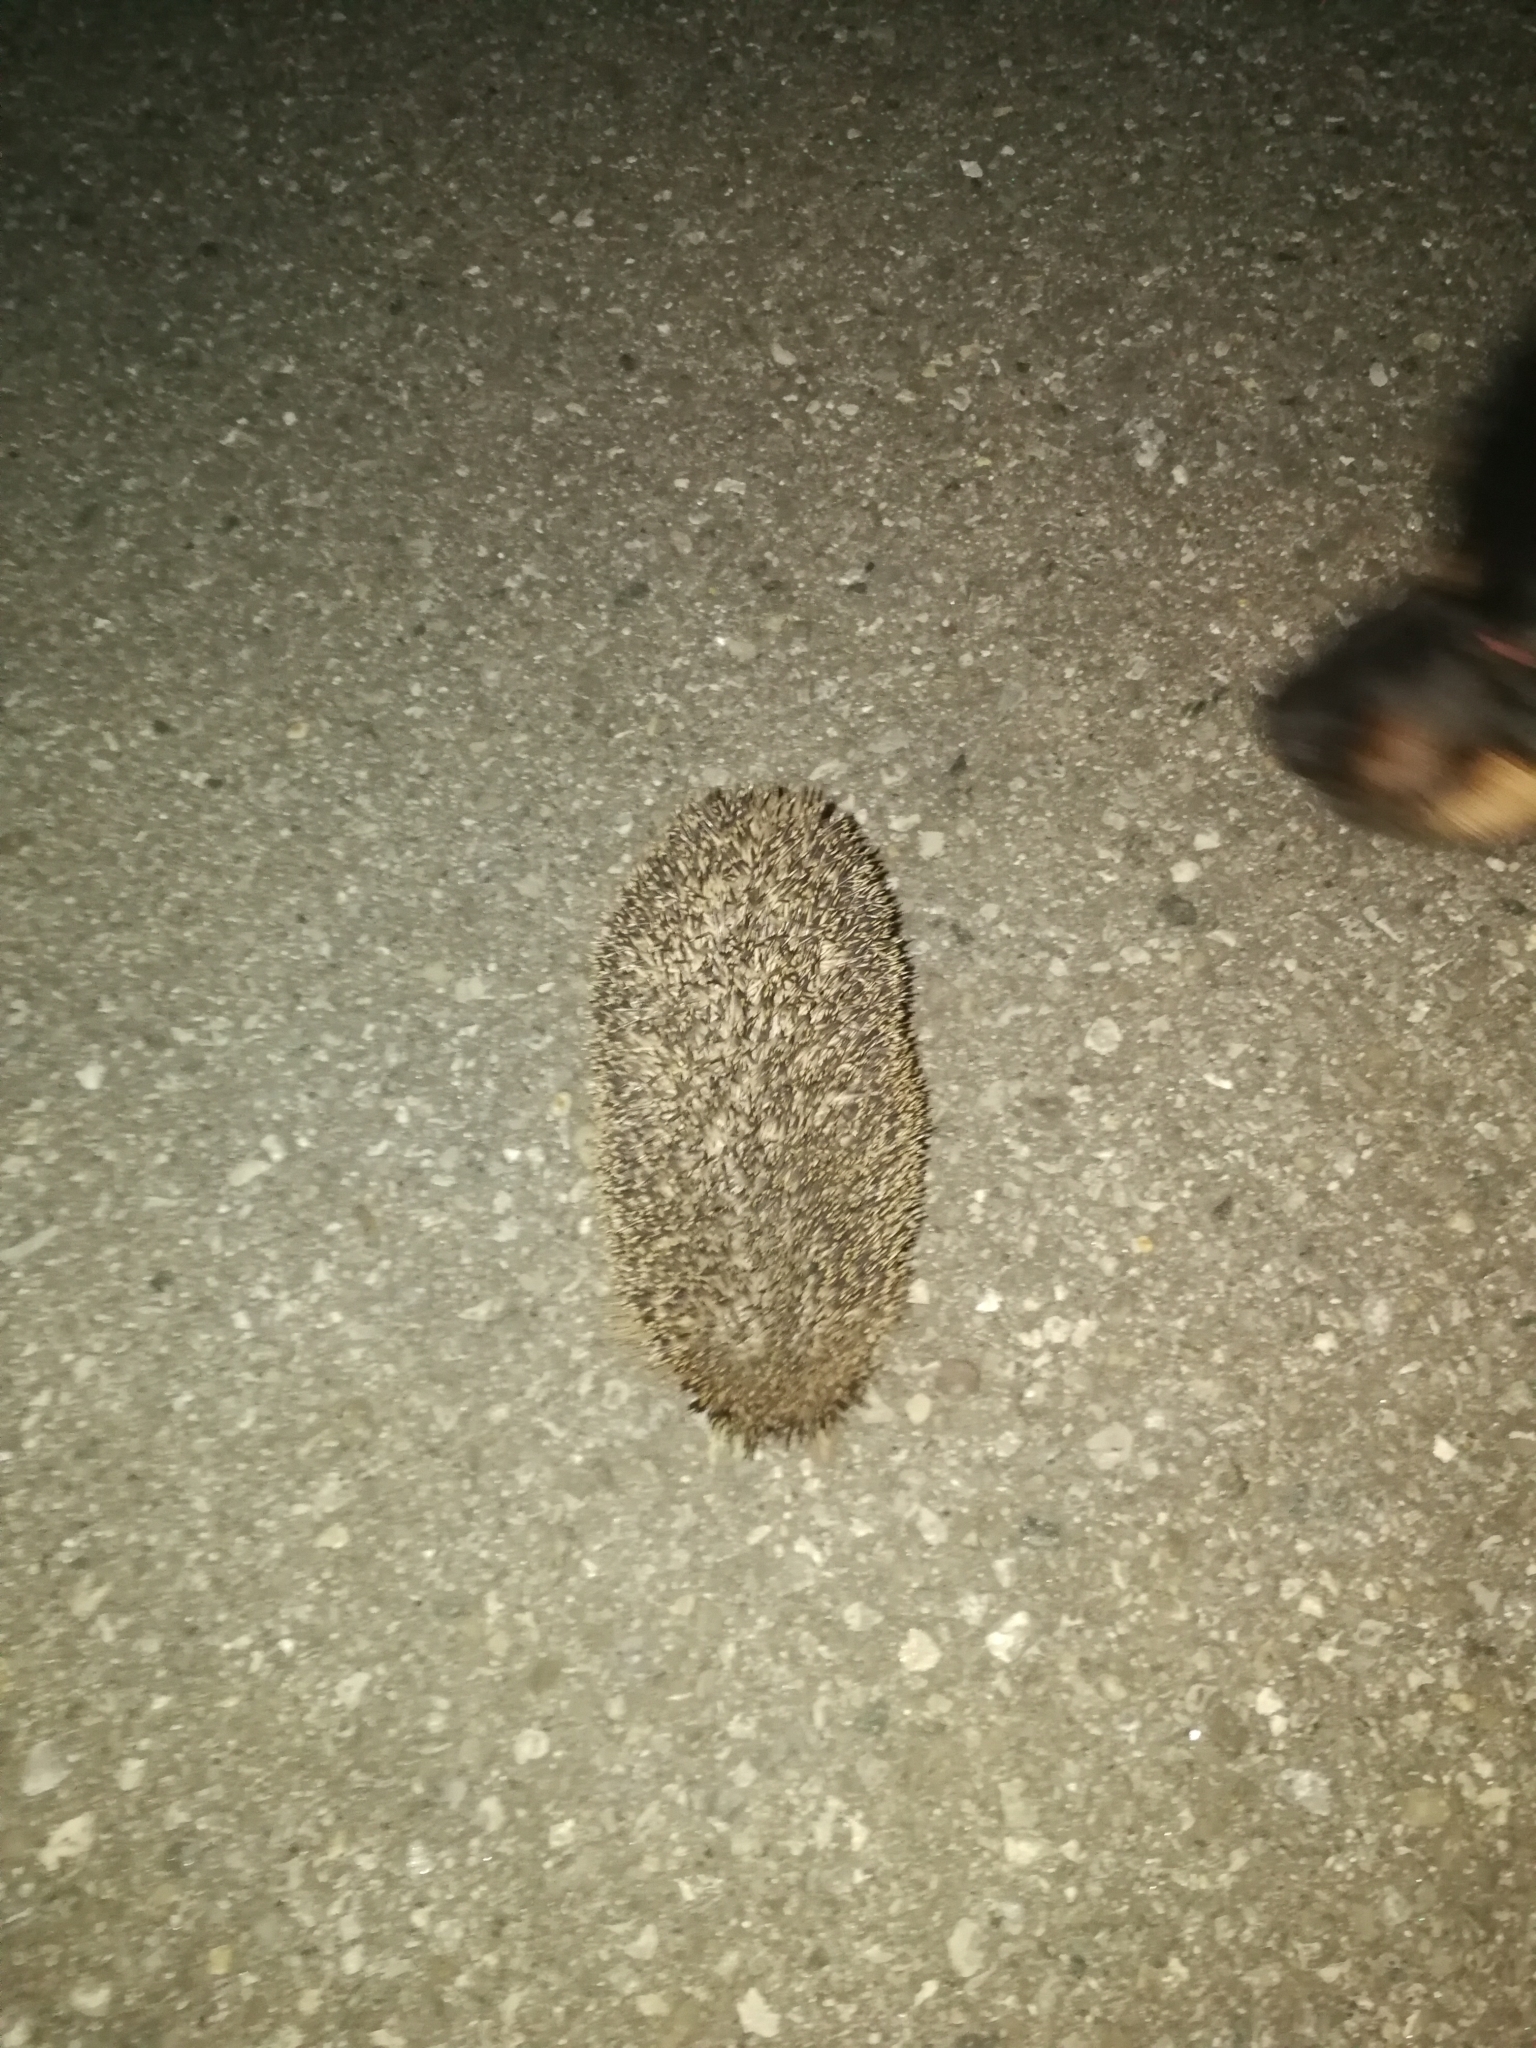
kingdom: Animalia
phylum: Chordata
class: Mammalia
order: Erinaceomorpha
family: Erinaceidae
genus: Erinaceus
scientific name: Erinaceus europaeus
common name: West european hedgehog
